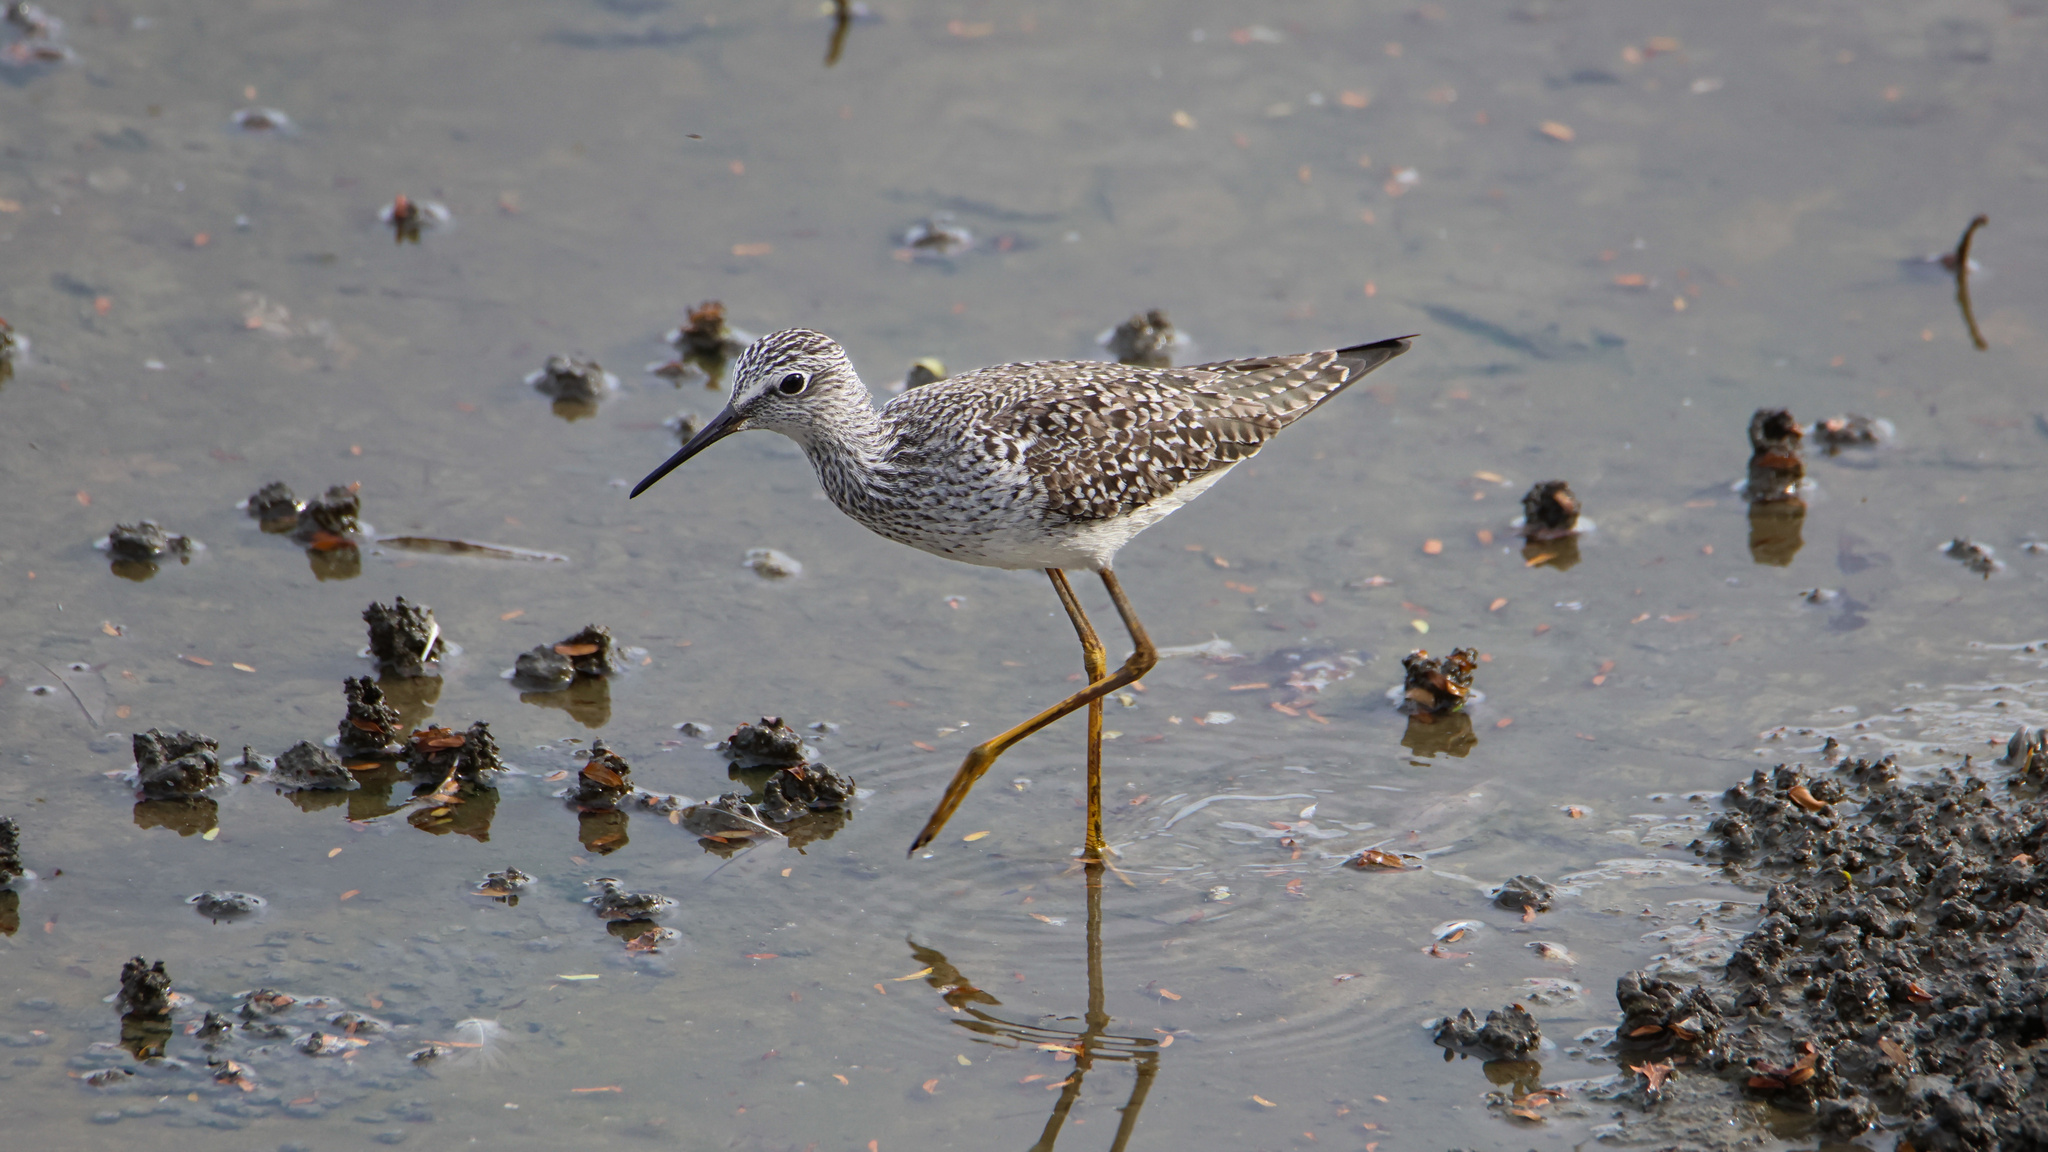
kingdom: Animalia
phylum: Chordata
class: Aves
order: Charadriiformes
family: Scolopacidae
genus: Tringa
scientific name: Tringa flavipes
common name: Lesser yellowlegs
